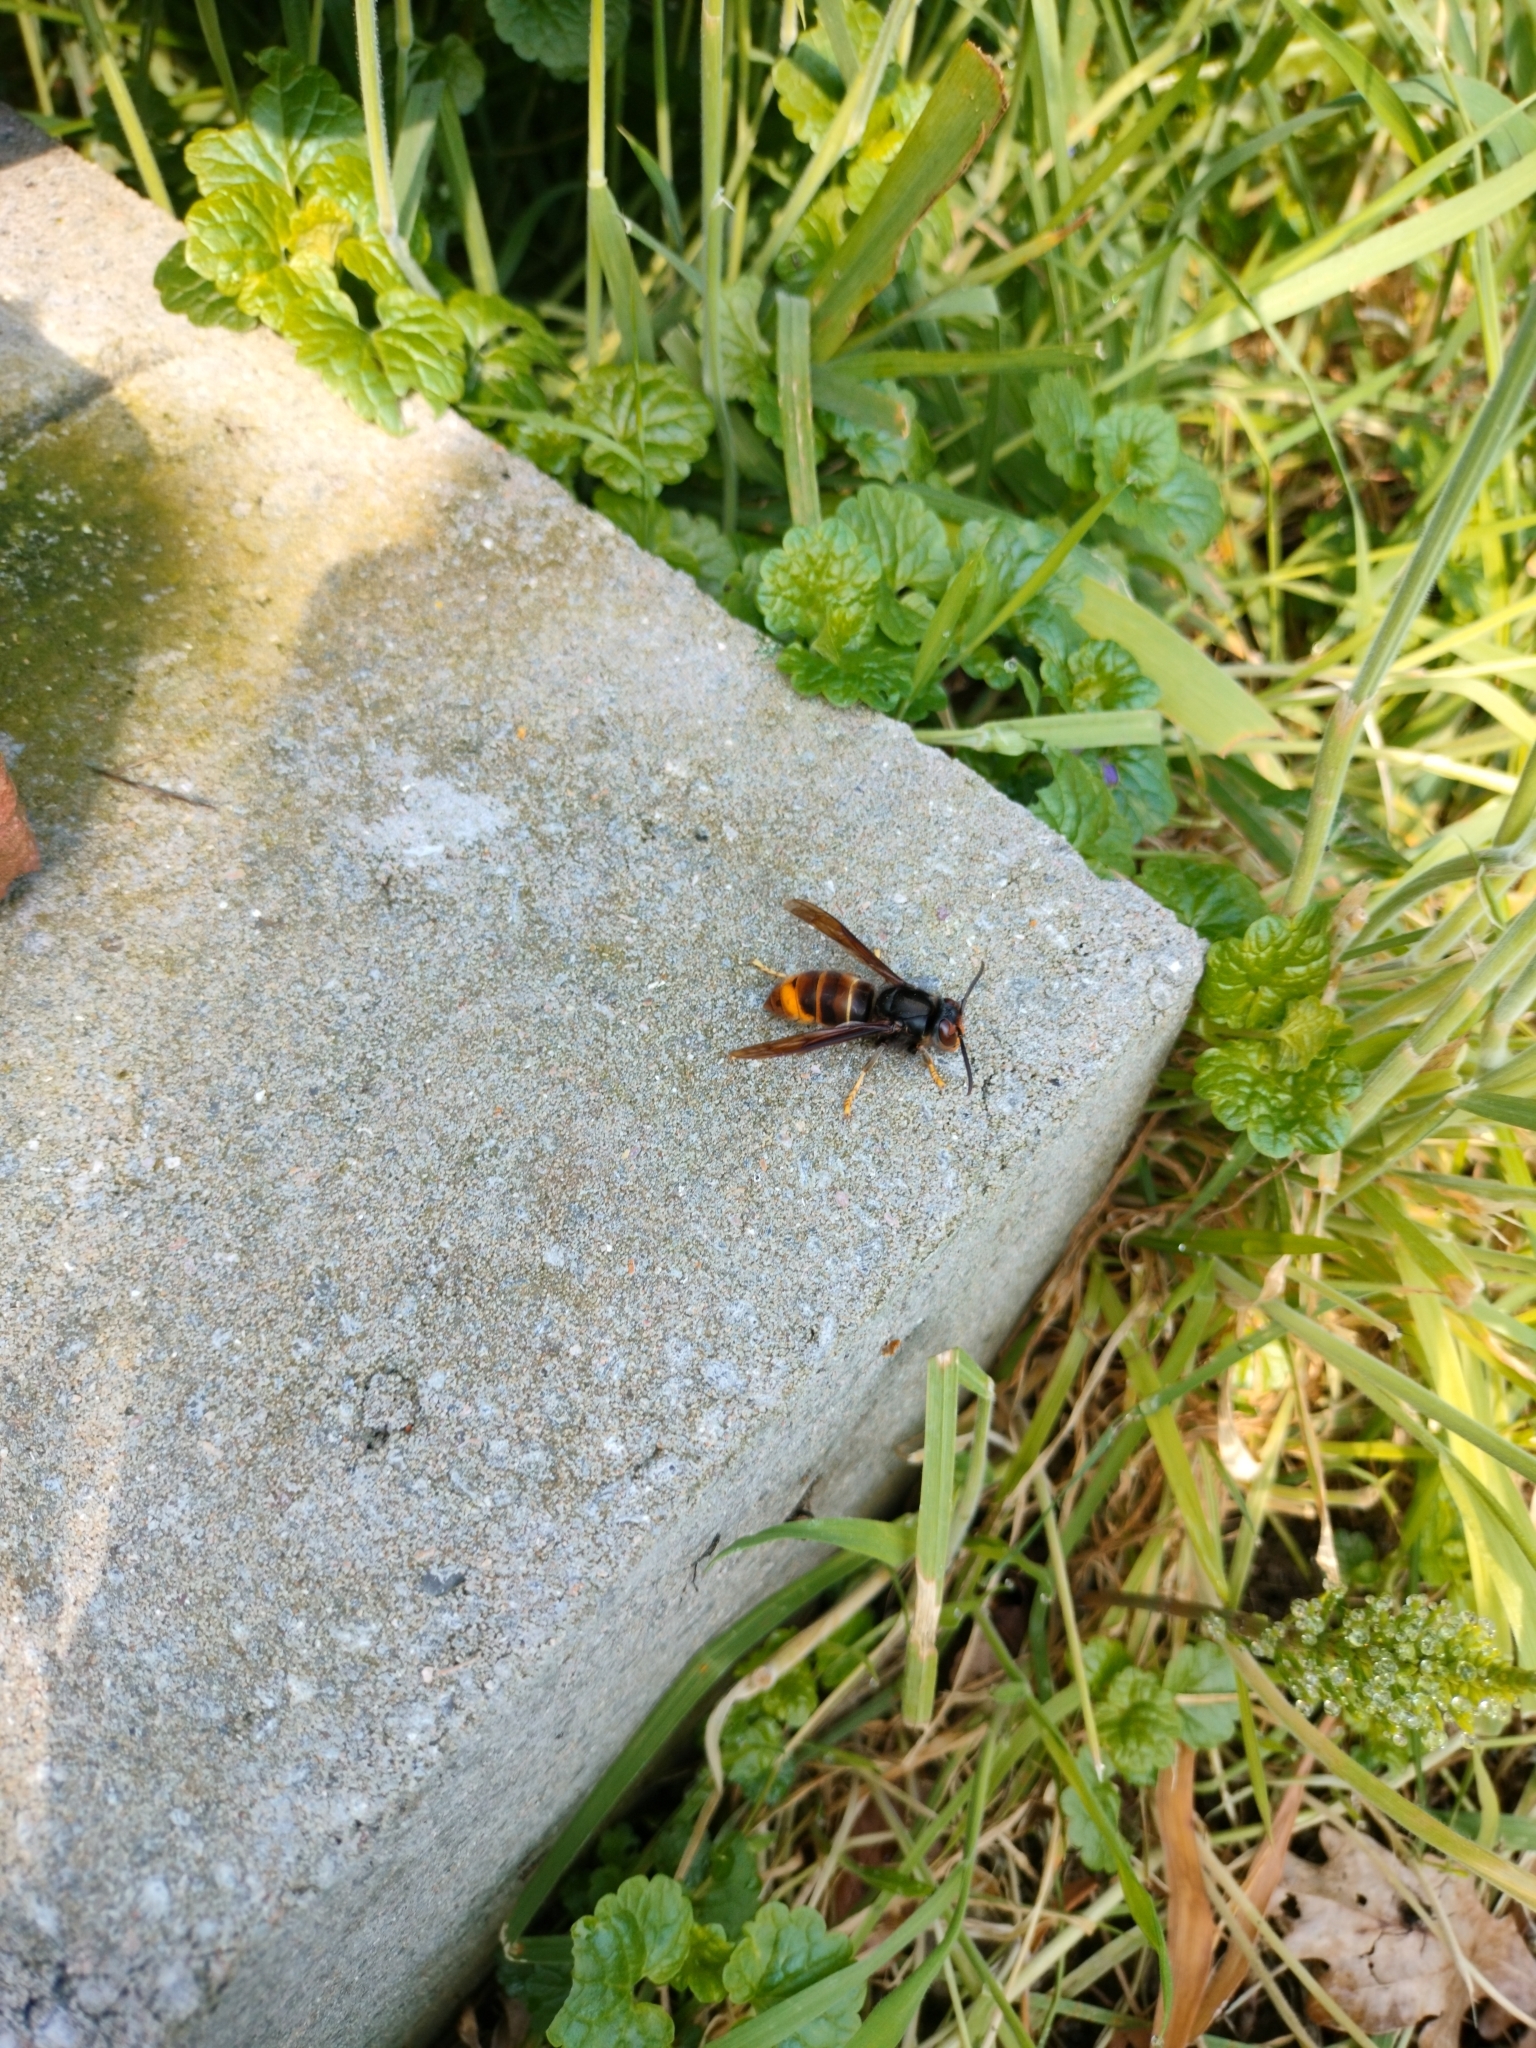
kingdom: Animalia
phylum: Arthropoda
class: Insecta
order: Hymenoptera
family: Vespidae
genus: Vespa
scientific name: Vespa velutina
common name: Asian hornet
